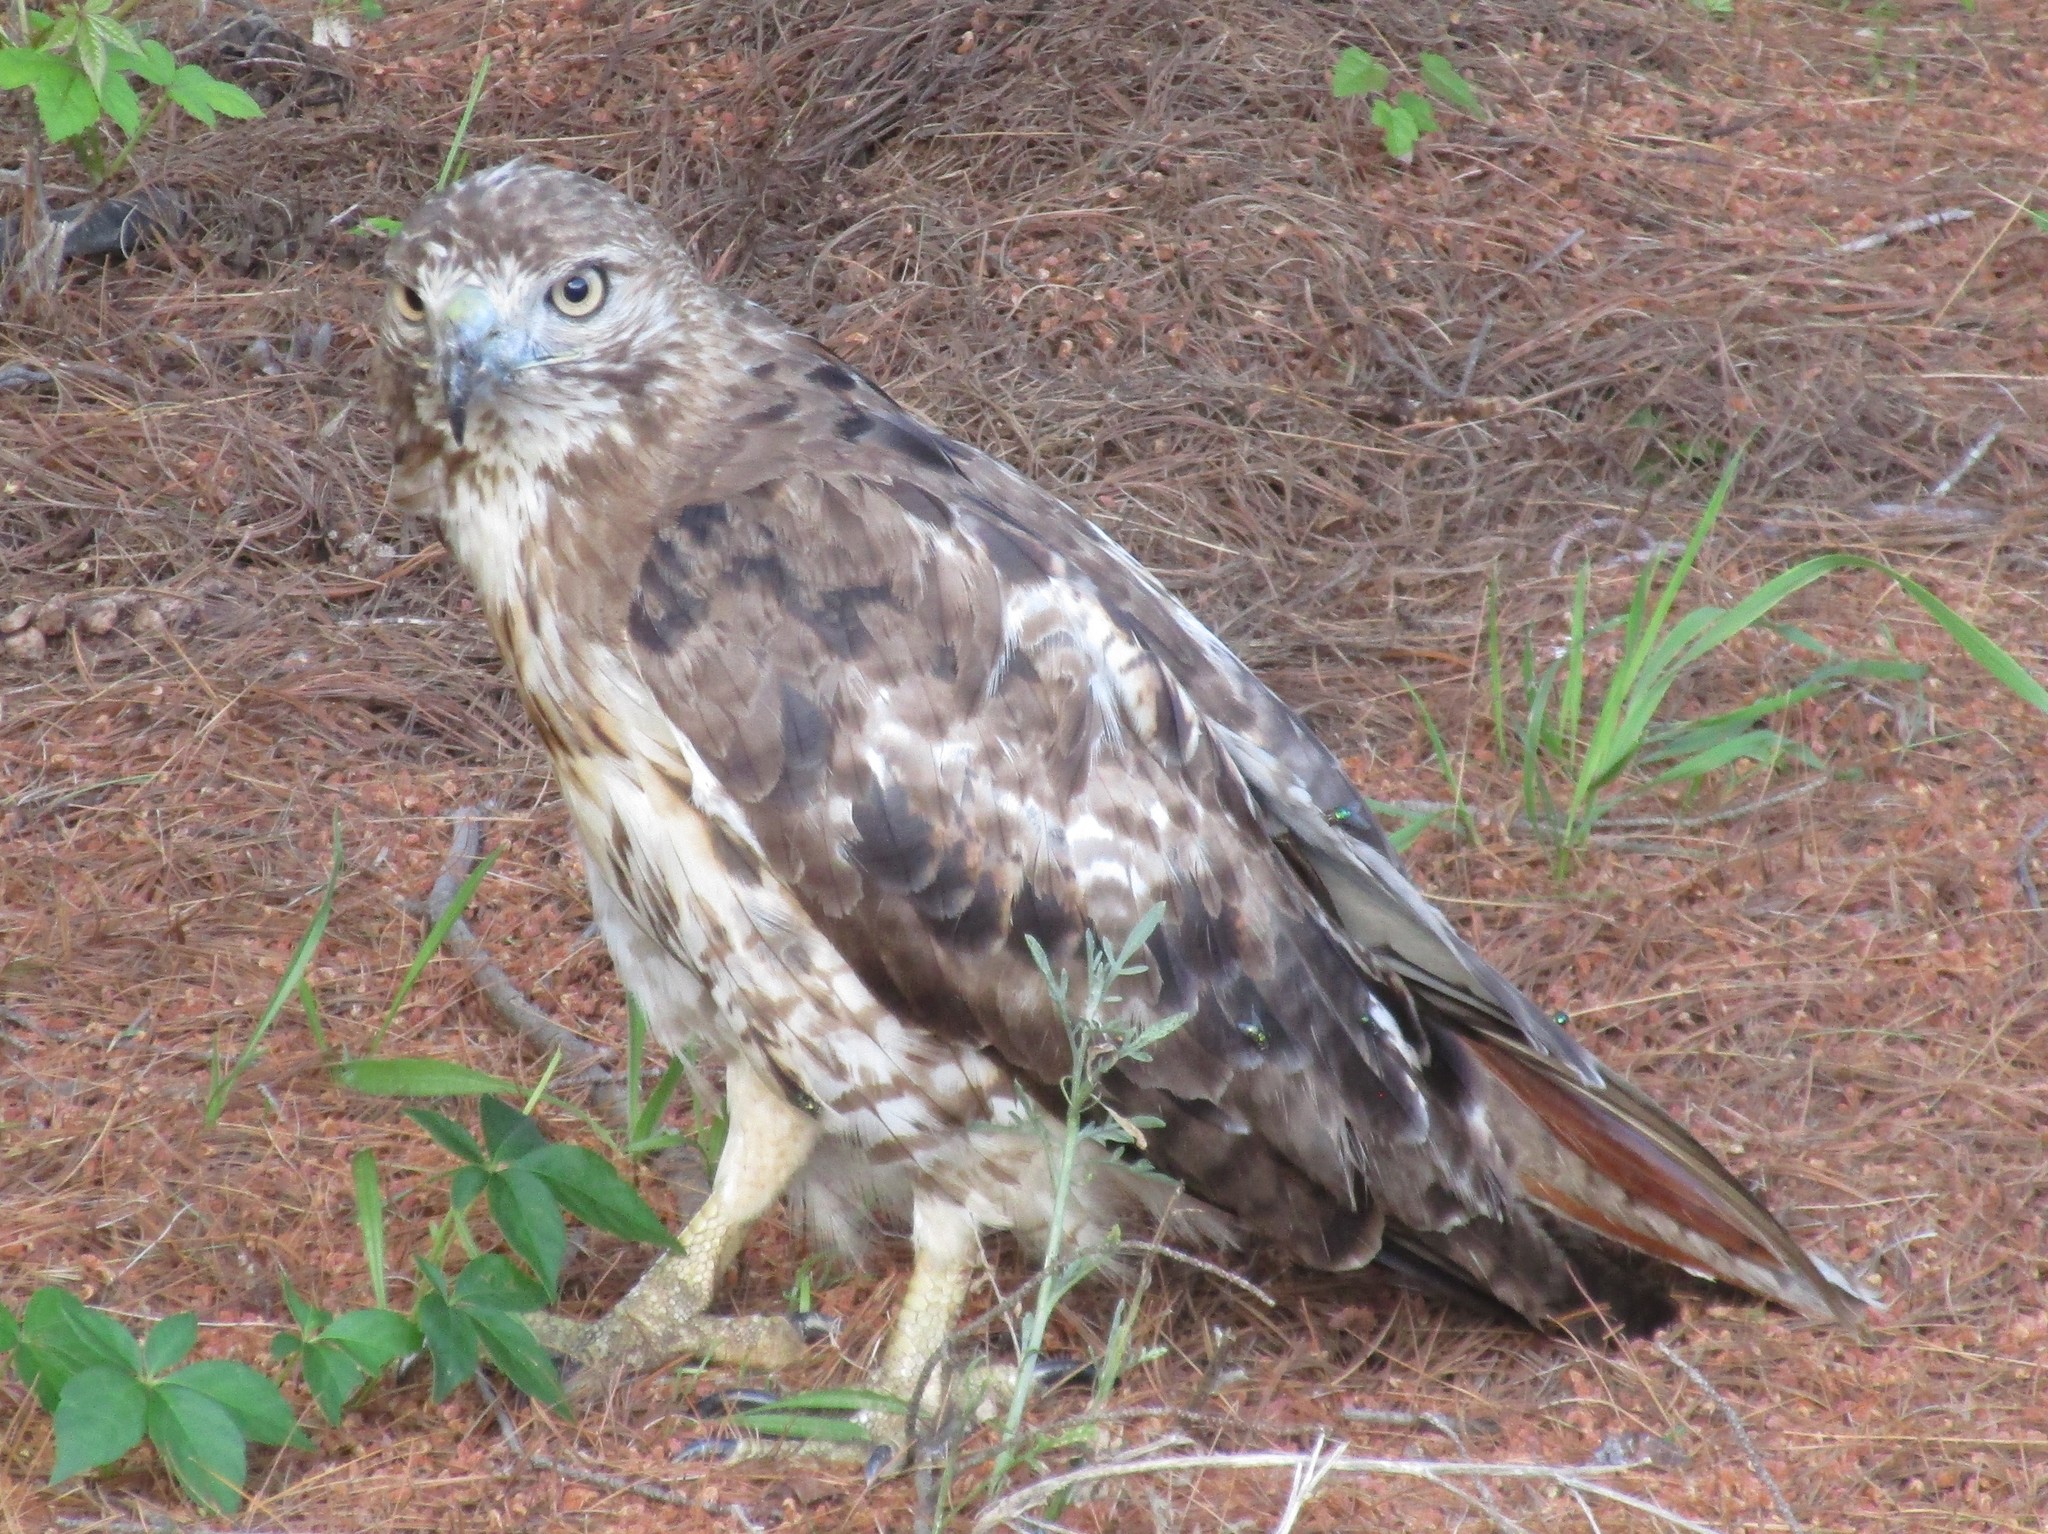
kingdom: Animalia
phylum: Chordata
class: Aves
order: Accipitriformes
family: Accipitridae
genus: Buteo
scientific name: Buteo jamaicensis
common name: Red-tailed hawk
